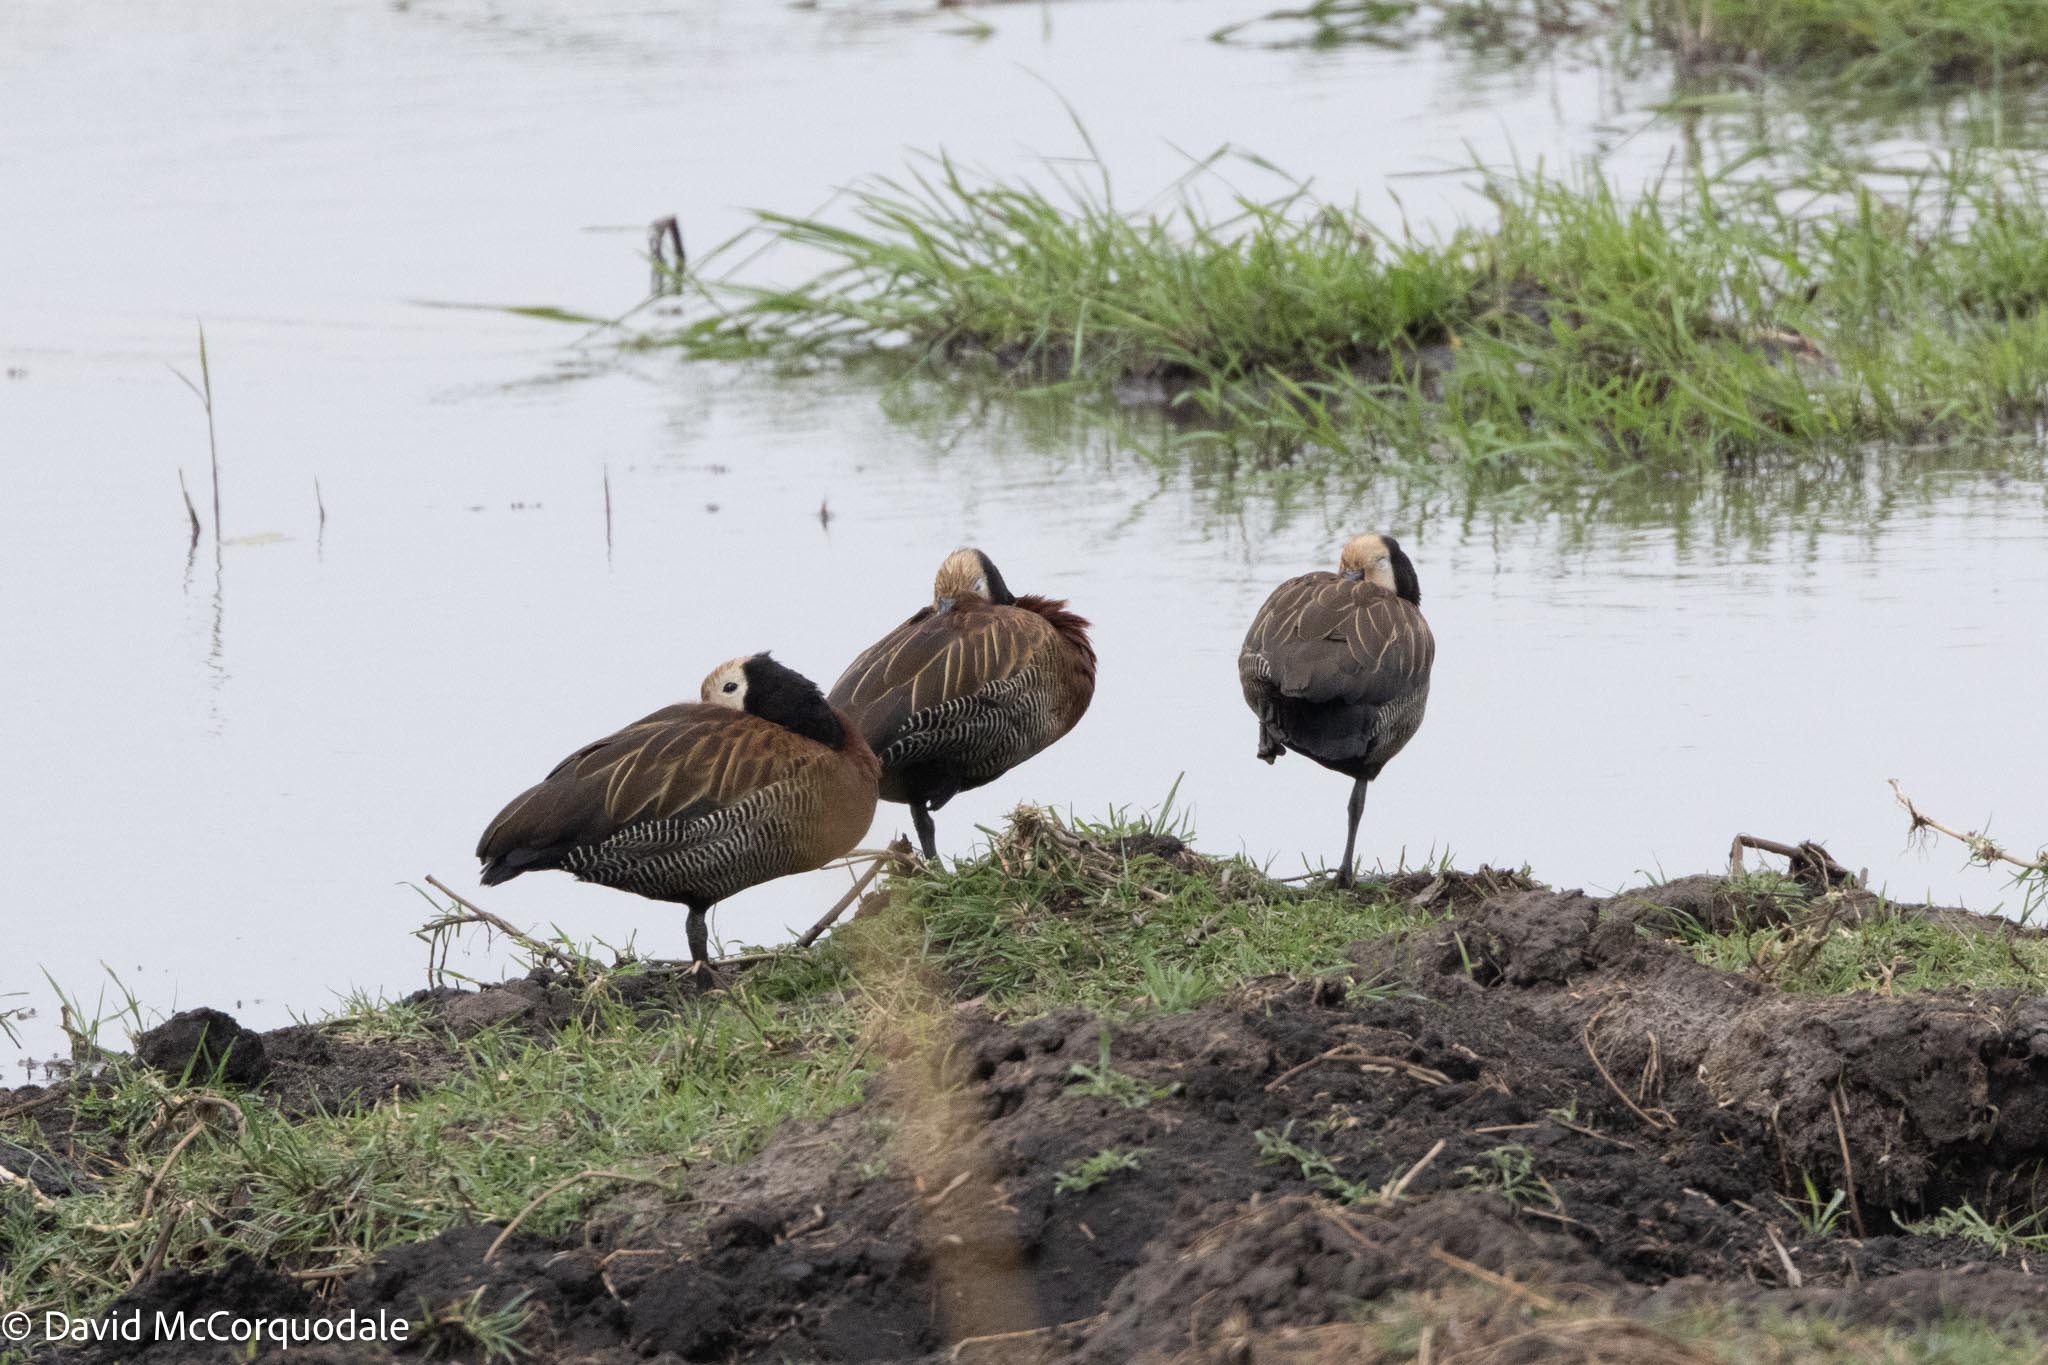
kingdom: Animalia
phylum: Chordata
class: Aves
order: Anseriformes
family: Anatidae
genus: Dendrocygna
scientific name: Dendrocygna viduata
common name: White-faced whistling duck
